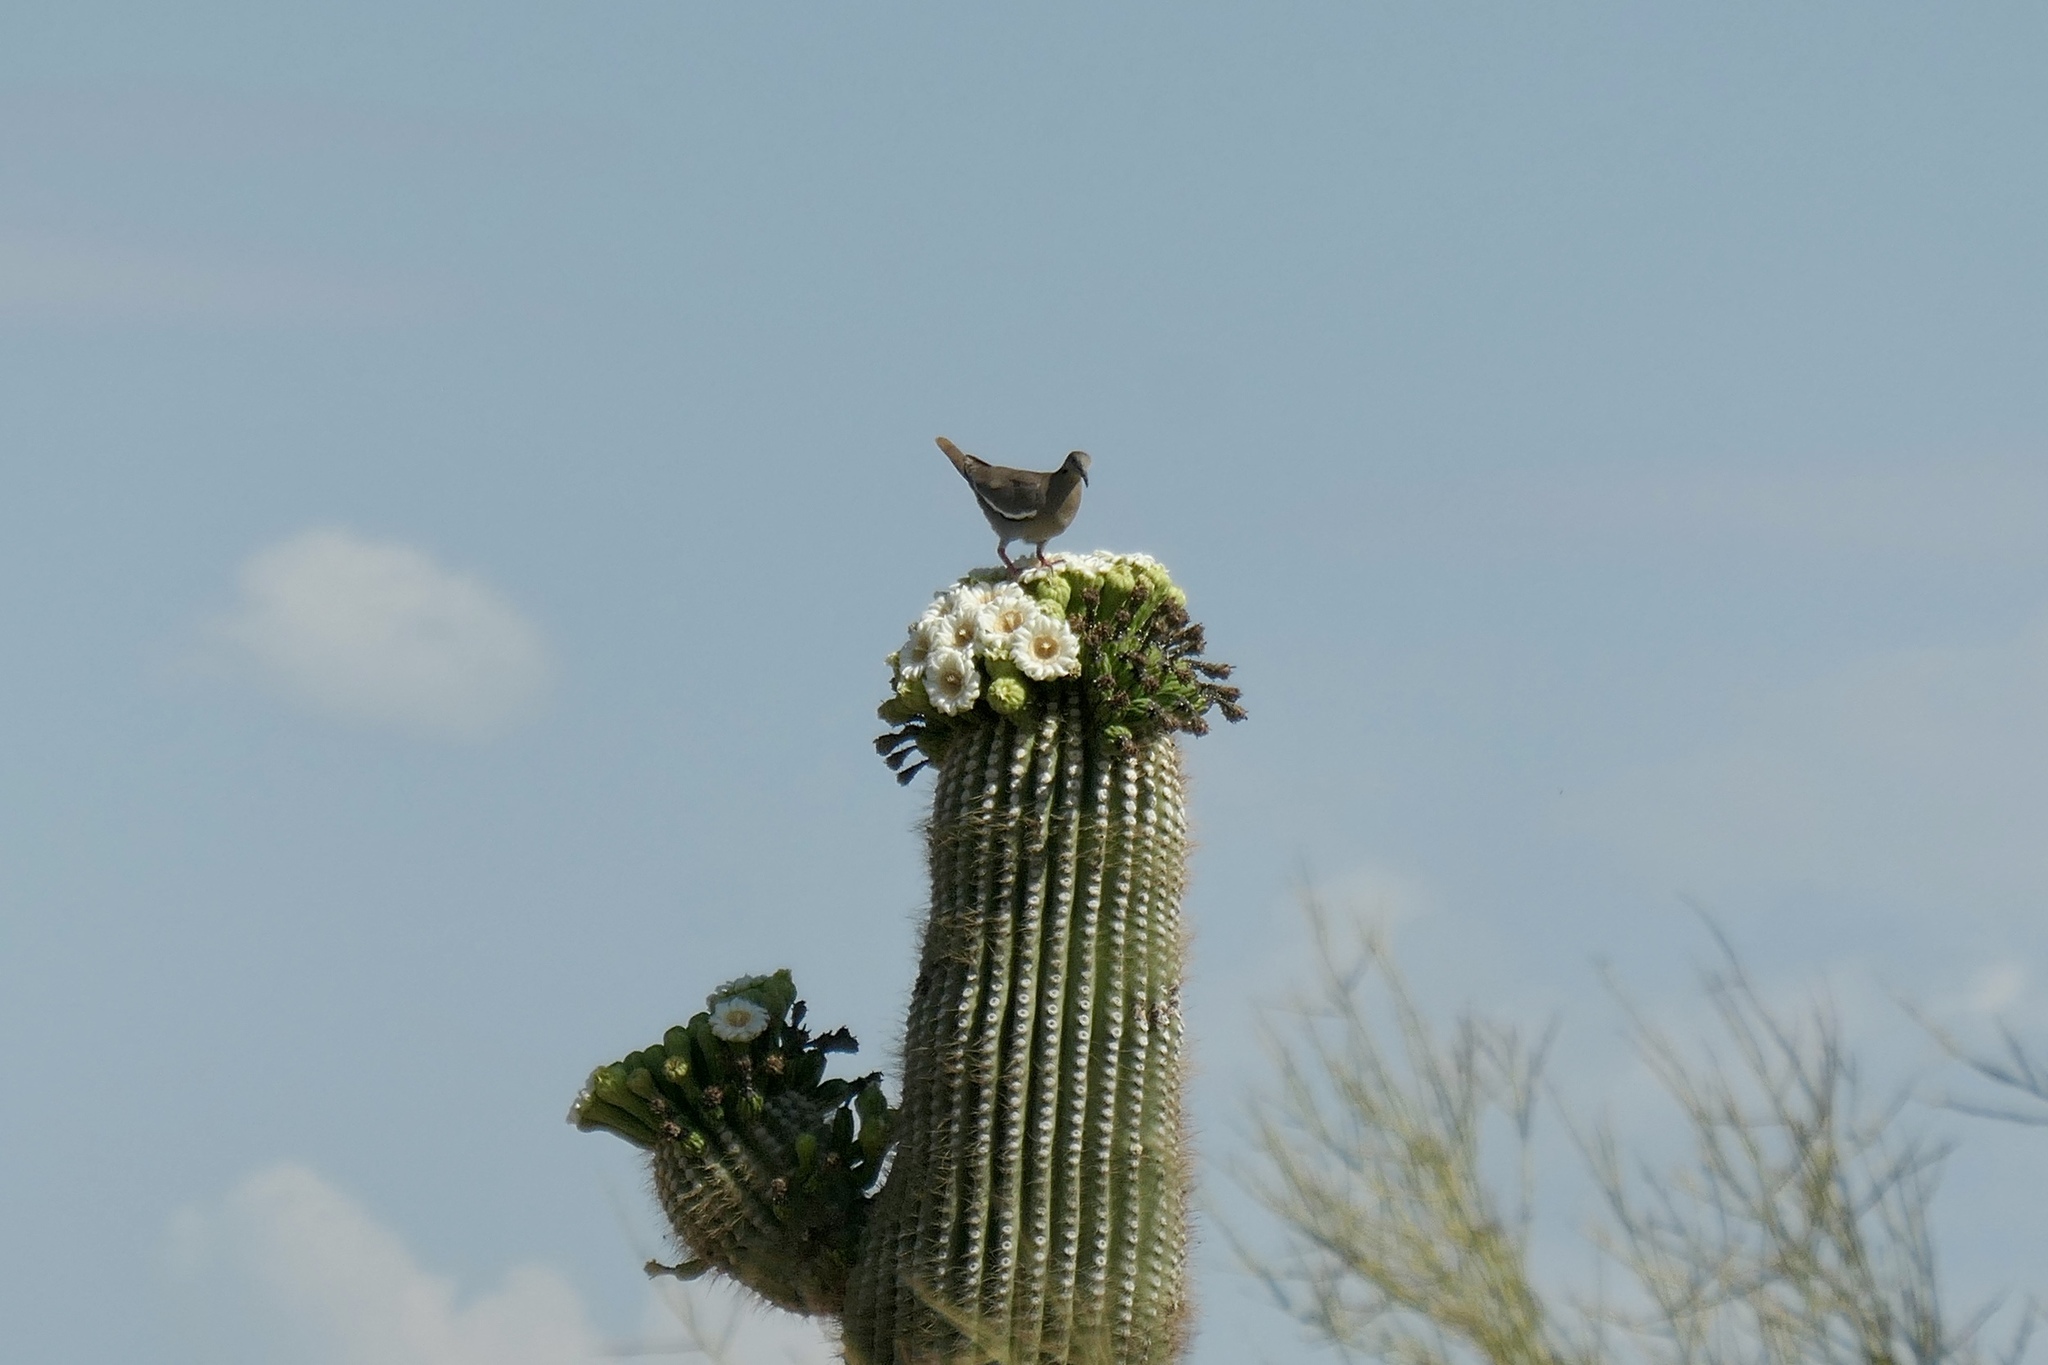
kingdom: Animalia
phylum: Chordata
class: Aves
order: Columbiformes
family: Columbidae
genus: Zenaida
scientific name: Zenaida asiatica
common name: White-winged dove
